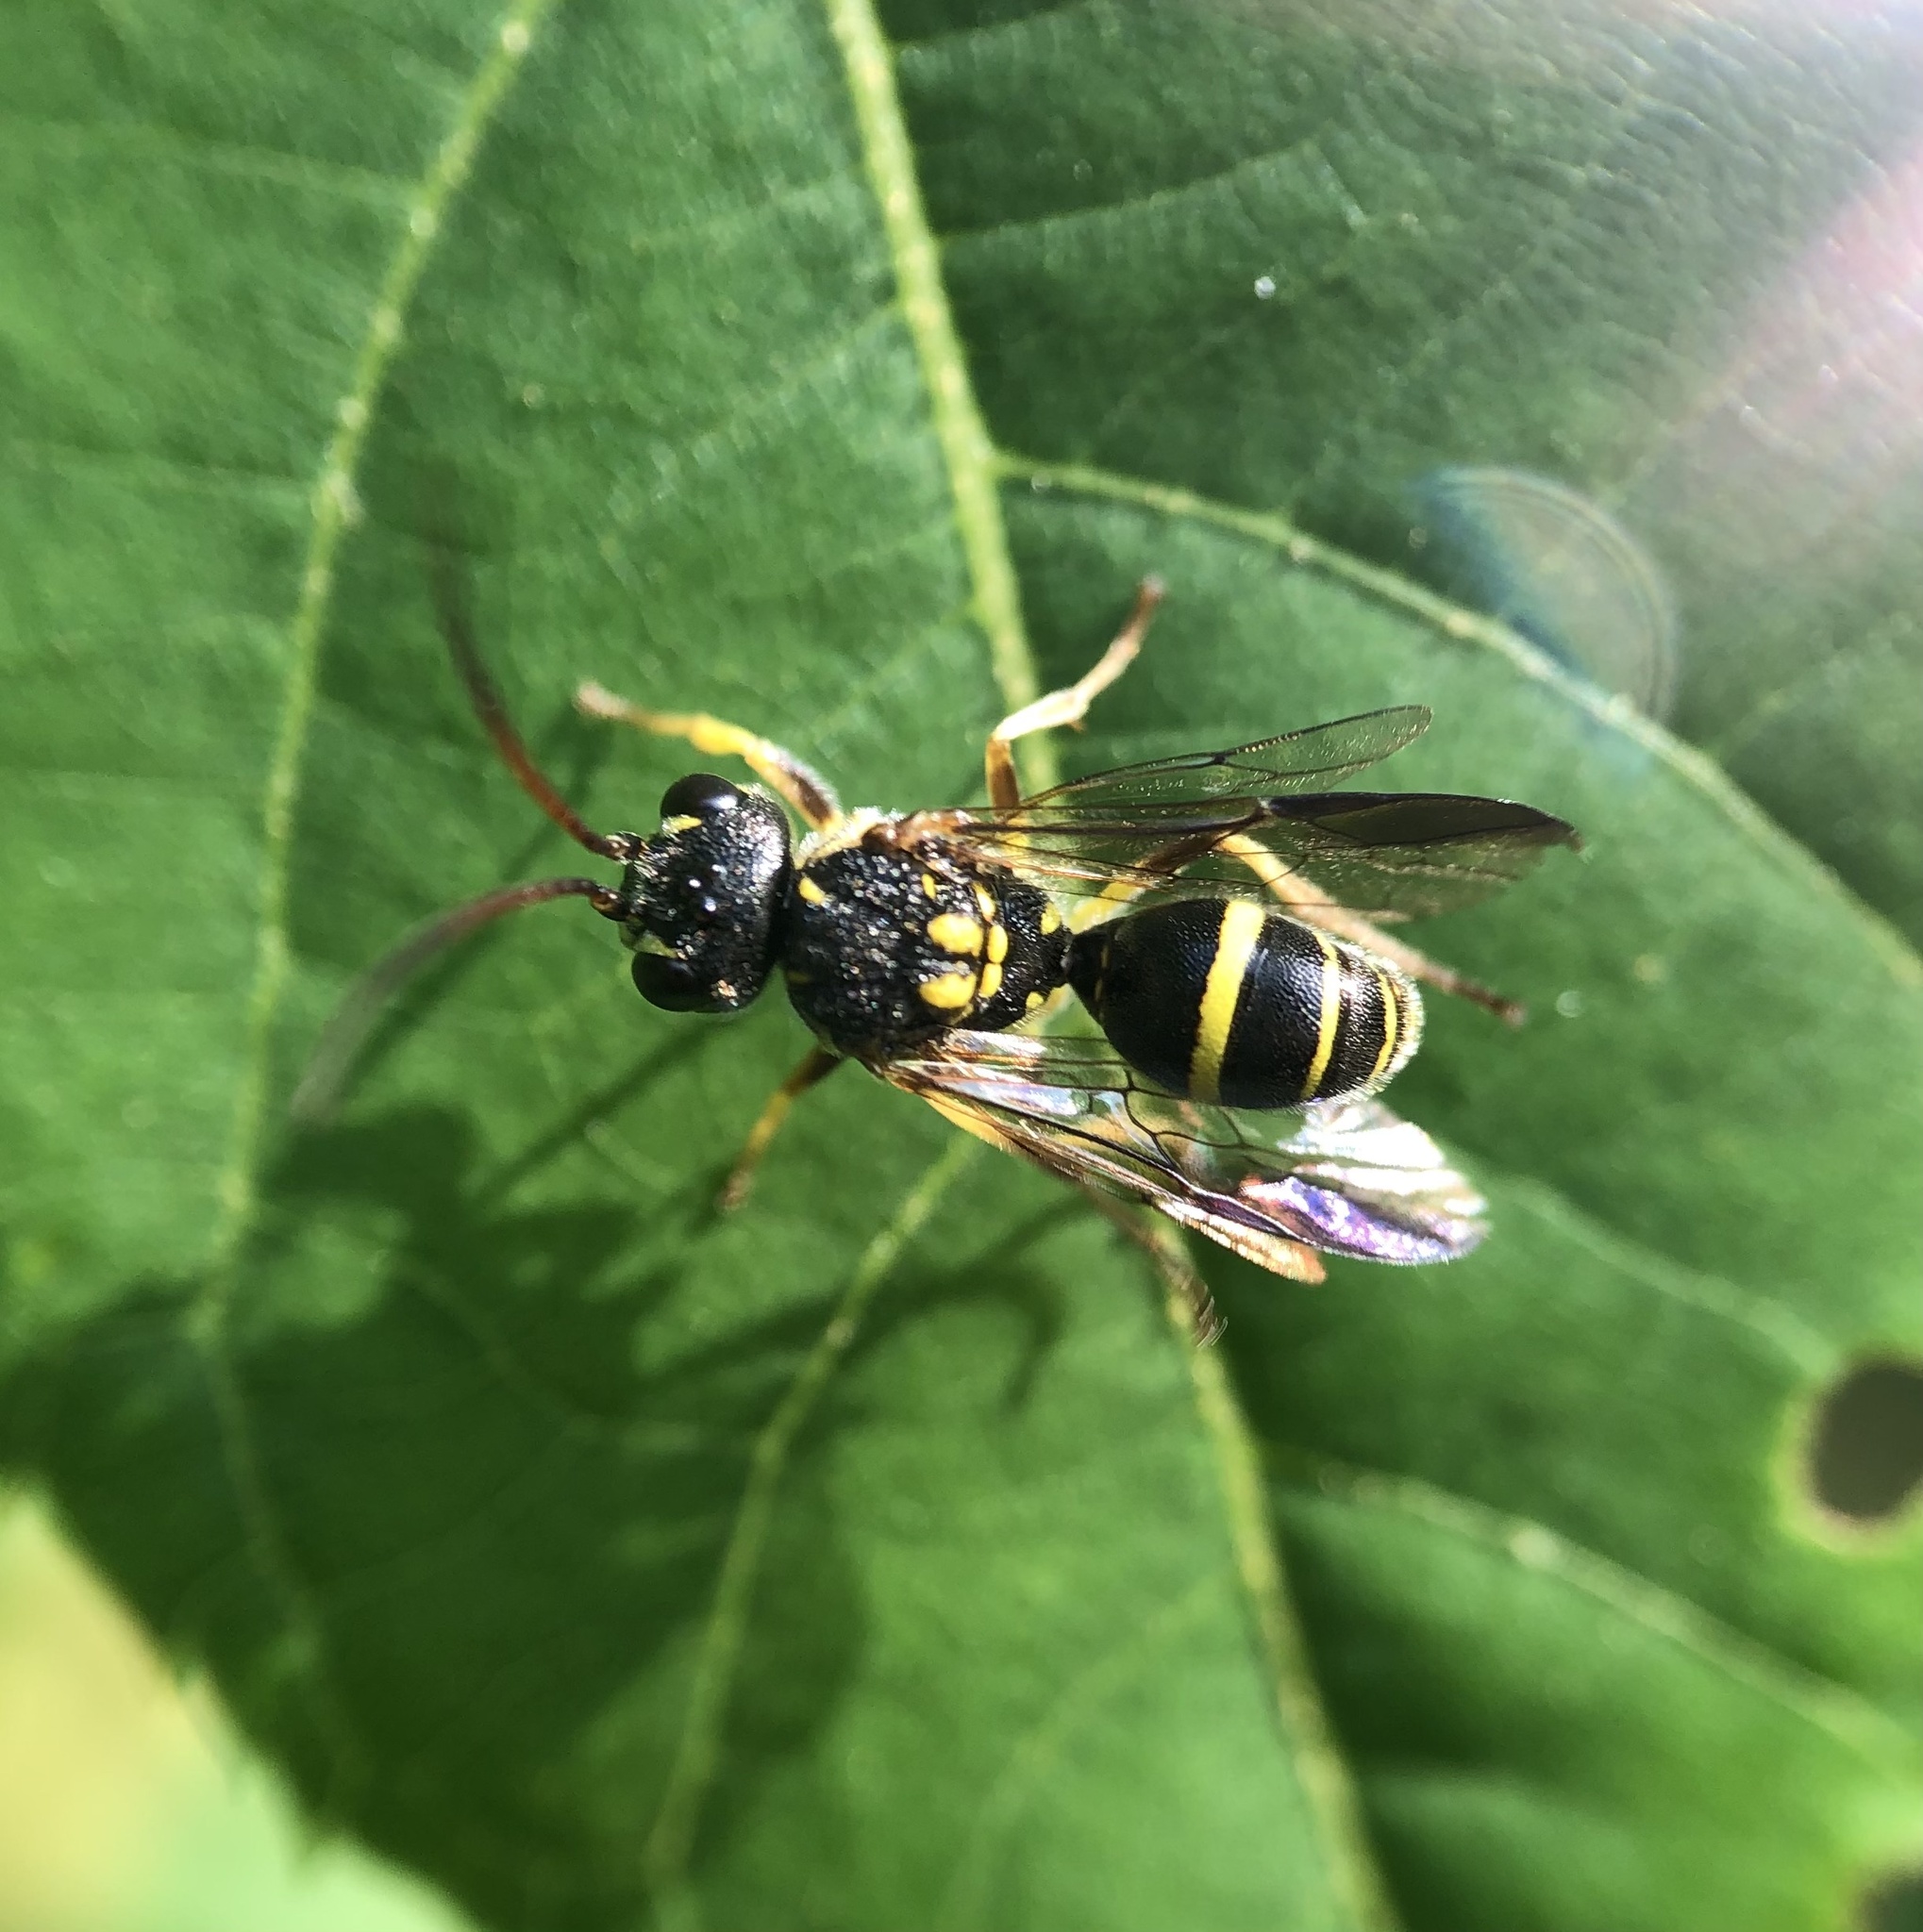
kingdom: Animalia
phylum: Arthropoda
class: Insecta
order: Hymenoptera
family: Trigonalidae
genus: Taeniogonalos
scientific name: Taeniogonalos gundlachii
